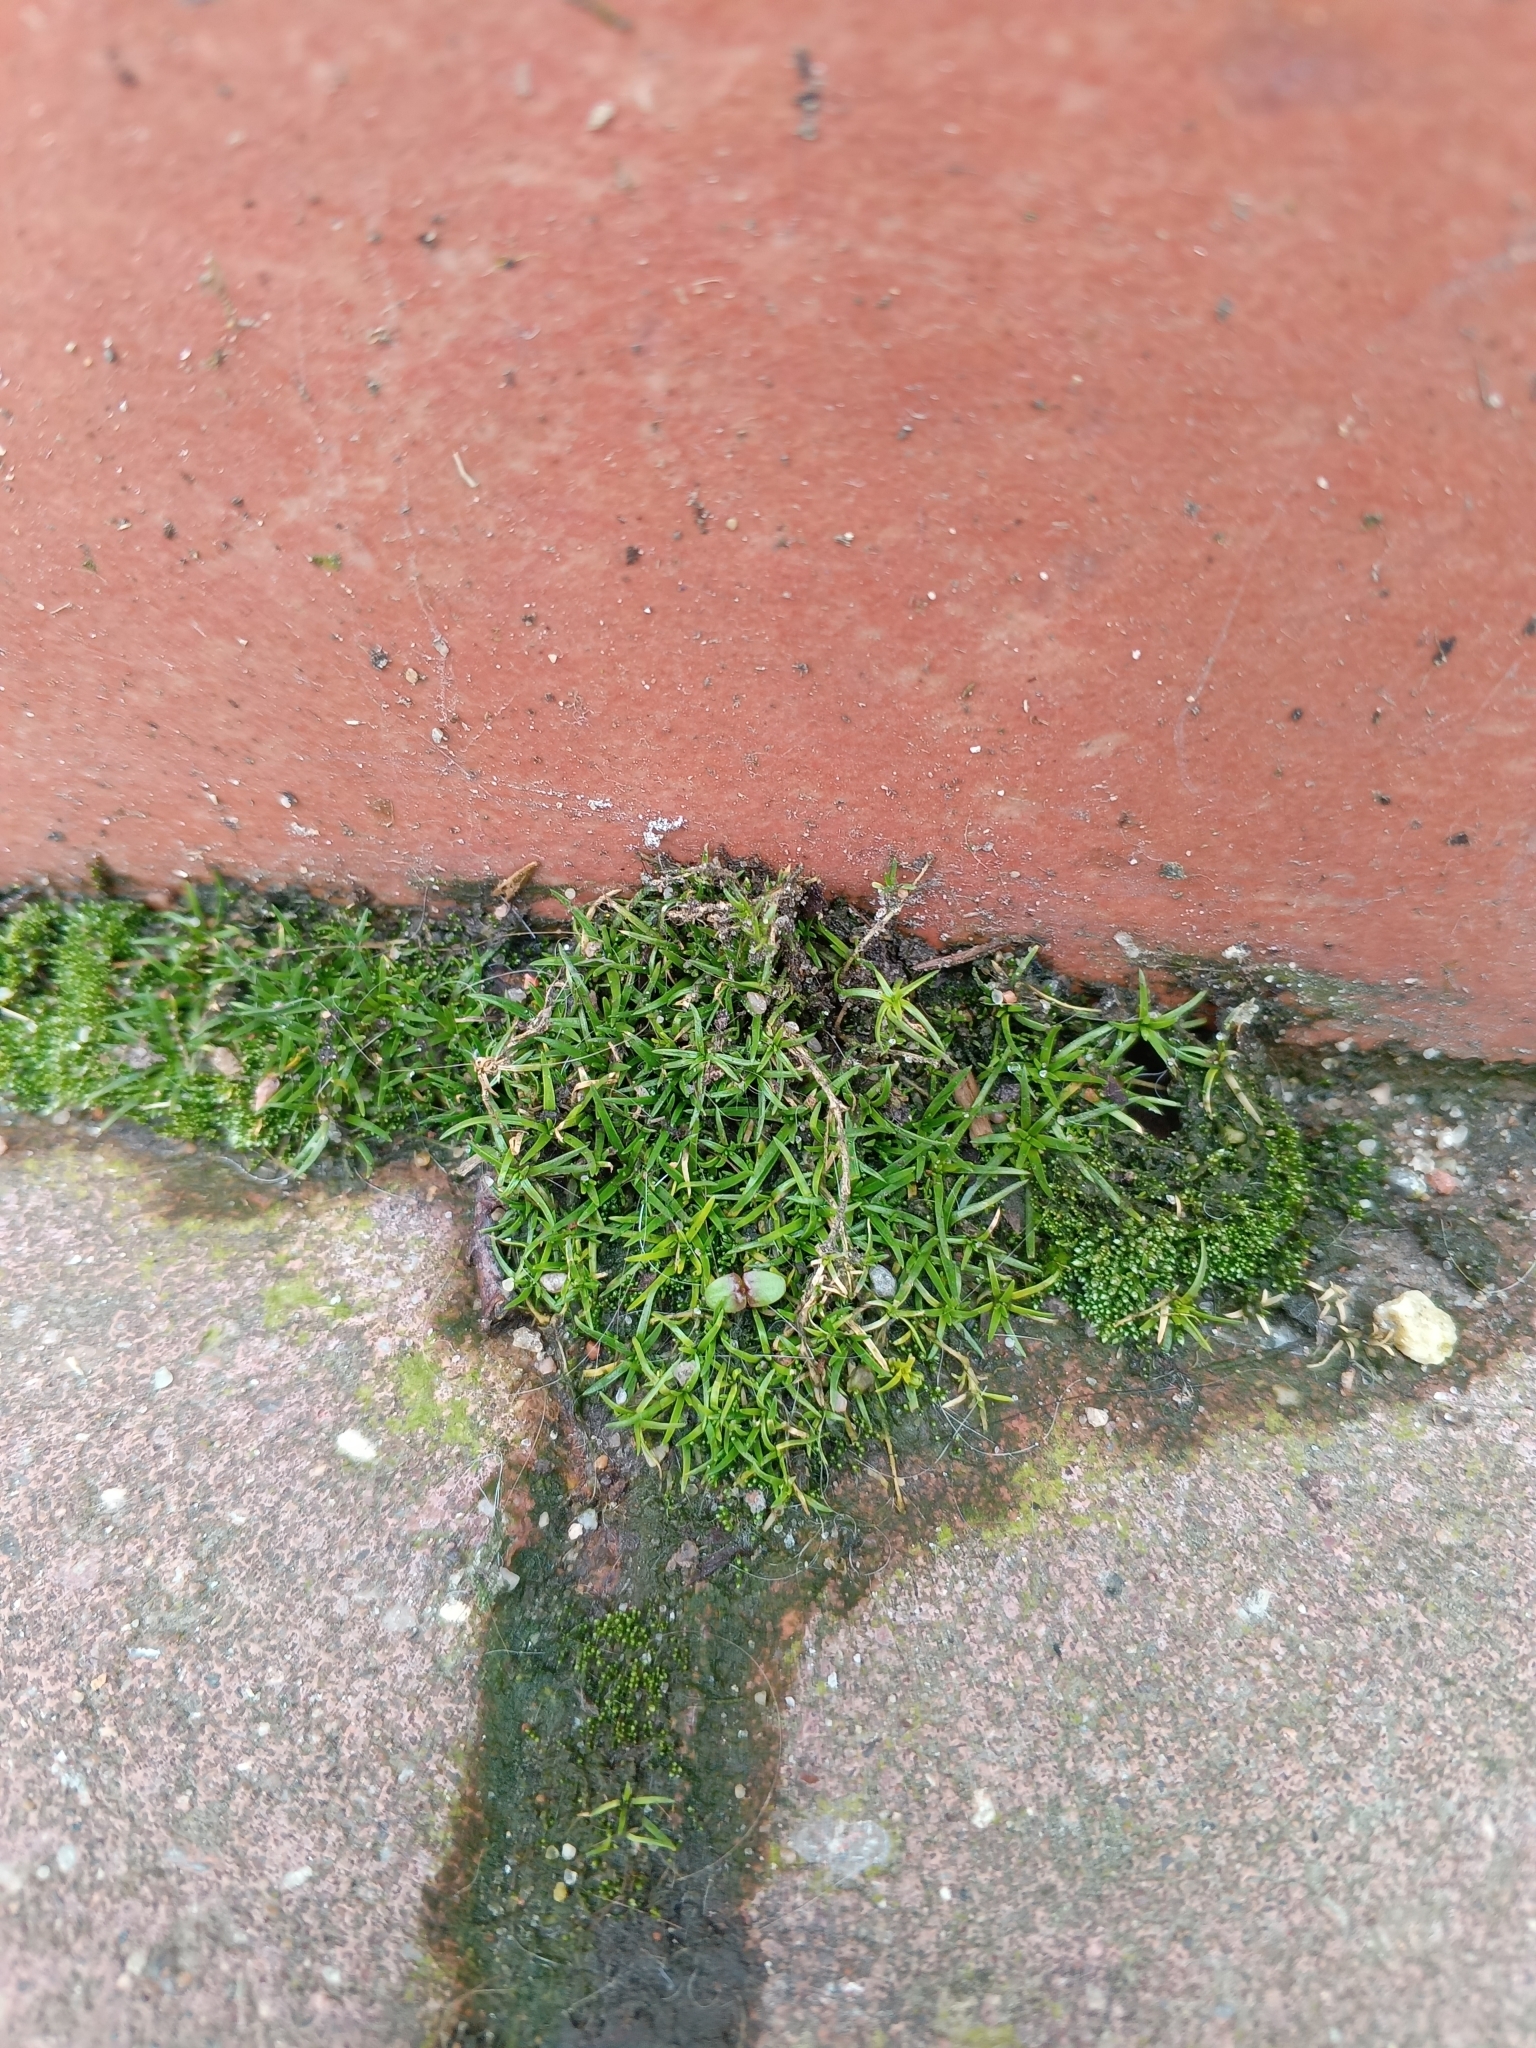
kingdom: Plantae
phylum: Tracheophyta
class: Magnoliopsida
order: Caryophyllales
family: Caryophyllaceae
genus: Sagina
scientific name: Sagina procumbens
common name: Procumbent pearlwort
